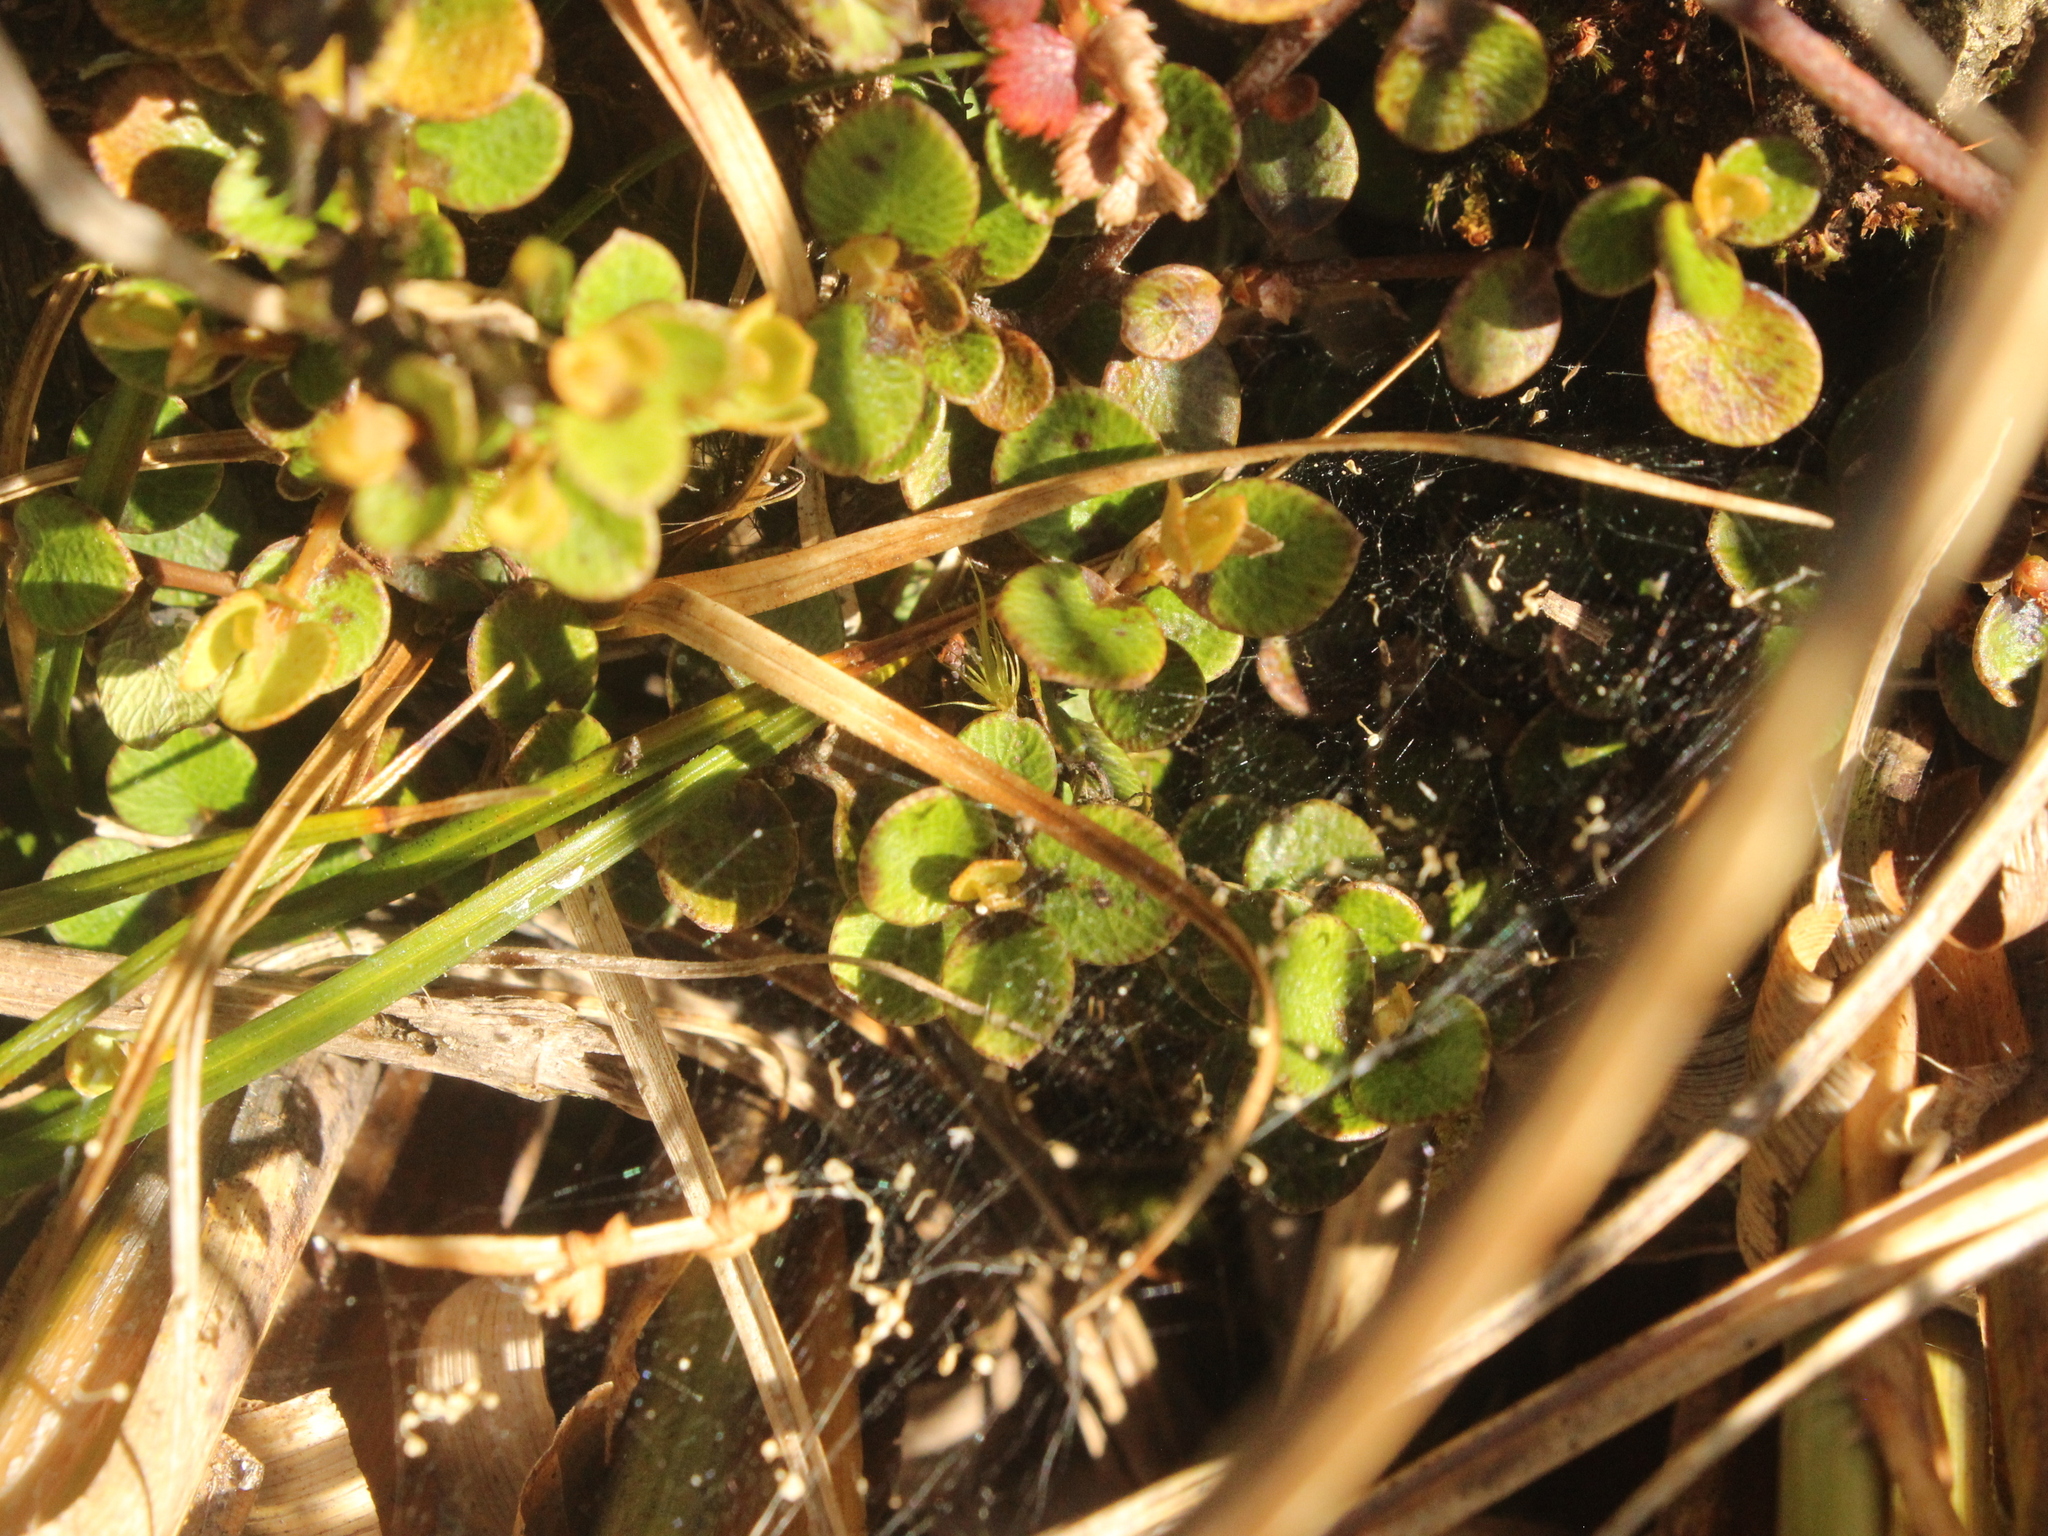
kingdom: Plantae
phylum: Tracheophyta
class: Magnoliopsida
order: Ericales
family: Primulaceae
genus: Myrsine
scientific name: Myrsine nummularia
